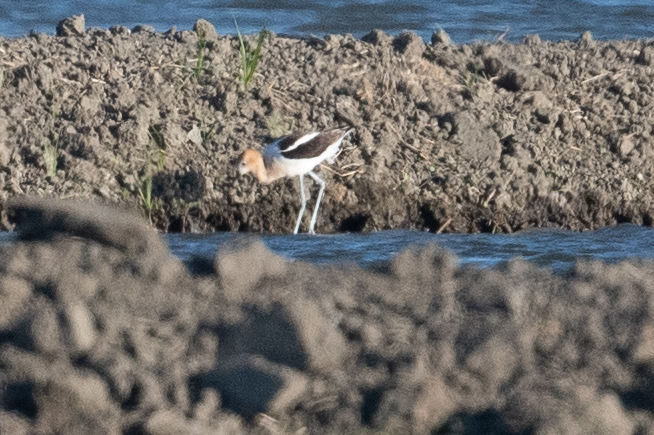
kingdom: Animalia
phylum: Chordata
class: Aves
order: Charadriiformes
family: Recurvirostridae
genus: Recurvirostra
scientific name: Recurvirostra americana
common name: American avocet
